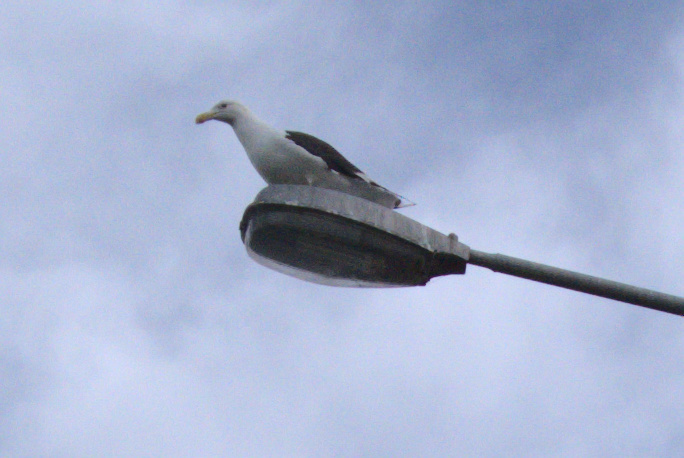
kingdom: Animalia
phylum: Chordata
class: Aves
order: Charadriiformes
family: Laridae
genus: Larus
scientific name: Larus dominicanus
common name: Kelp gull
